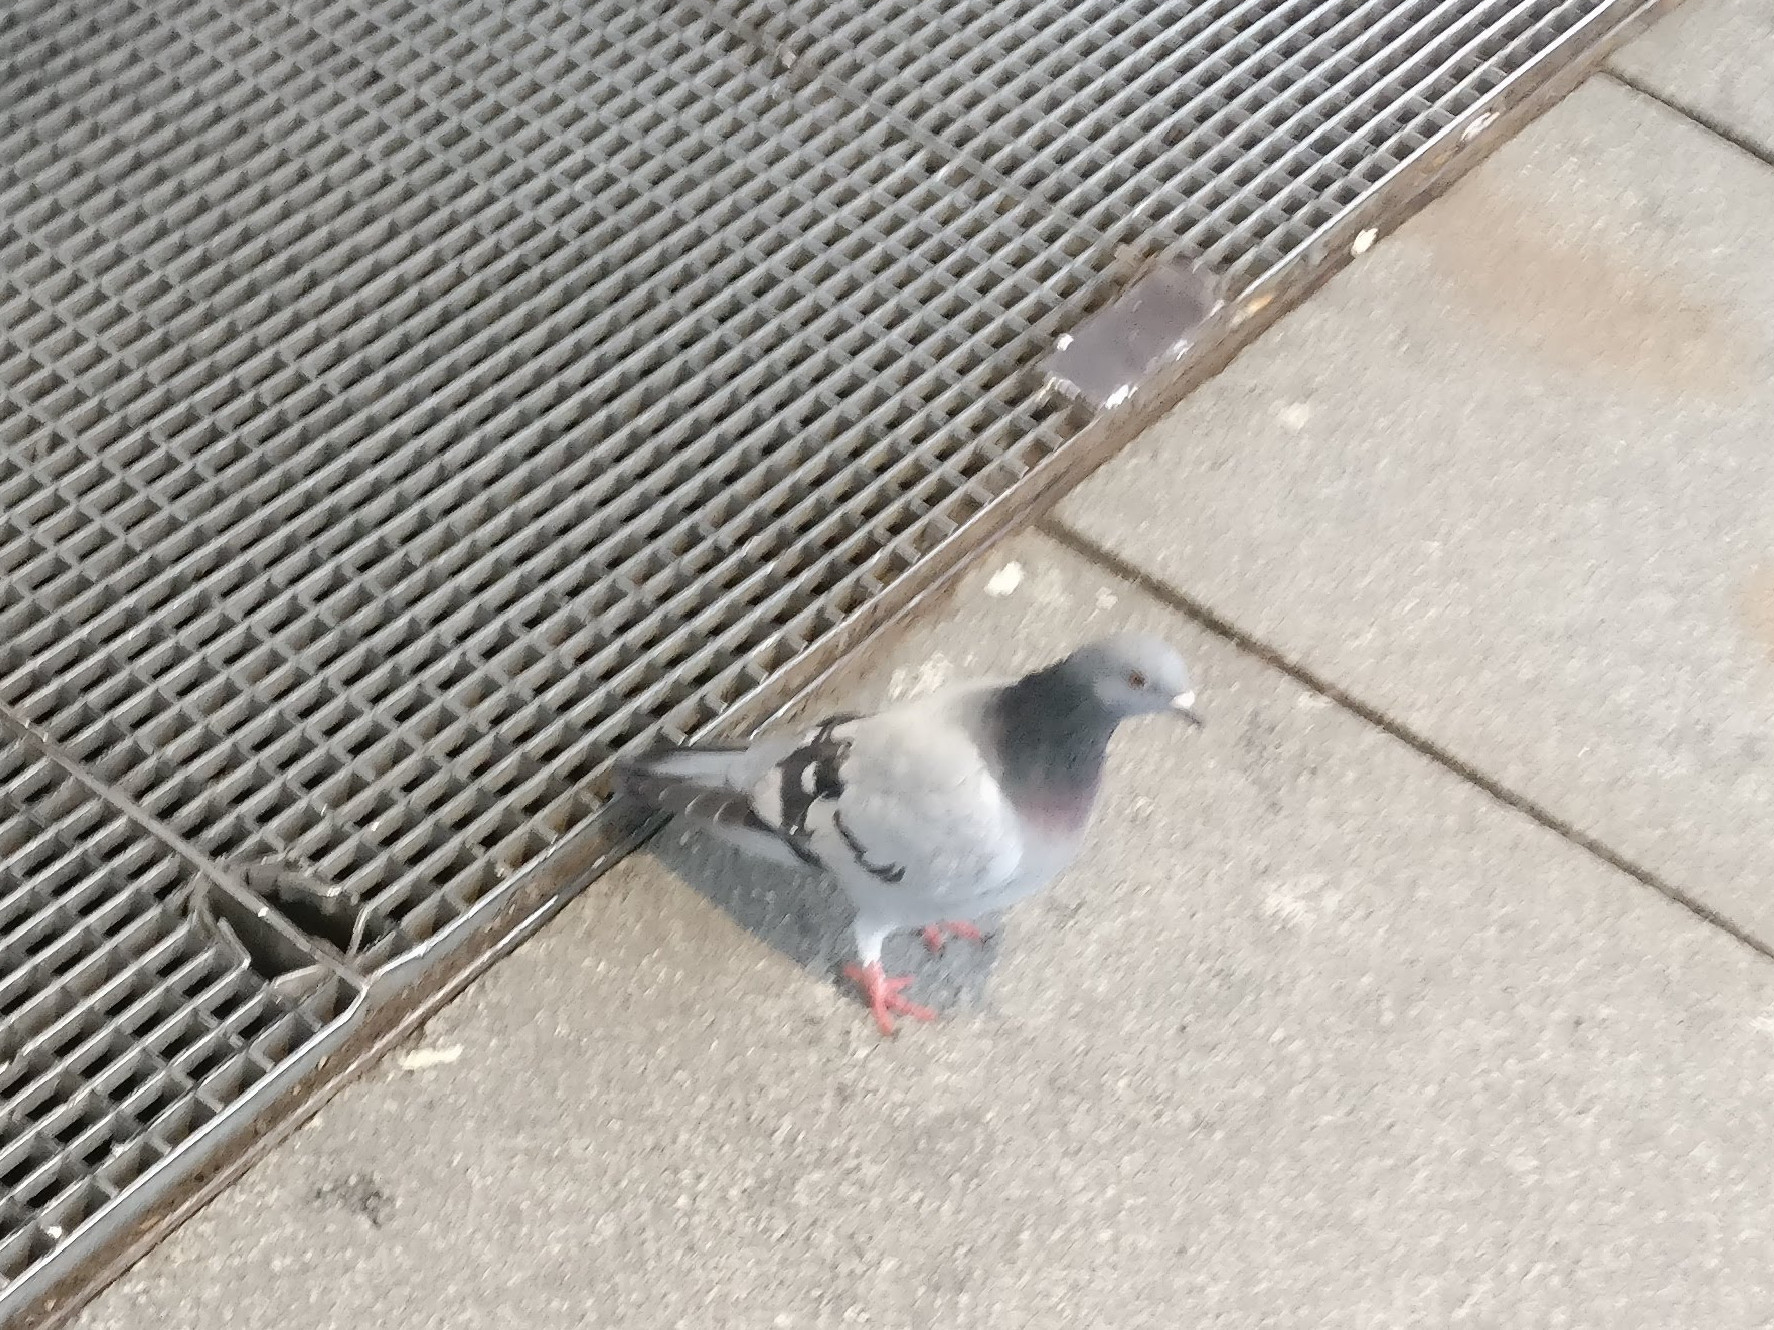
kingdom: Animalia
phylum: Chordata
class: Aves
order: Columbiformes
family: Columbidae
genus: Columba
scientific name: Columba livia
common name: Rock pigeon
